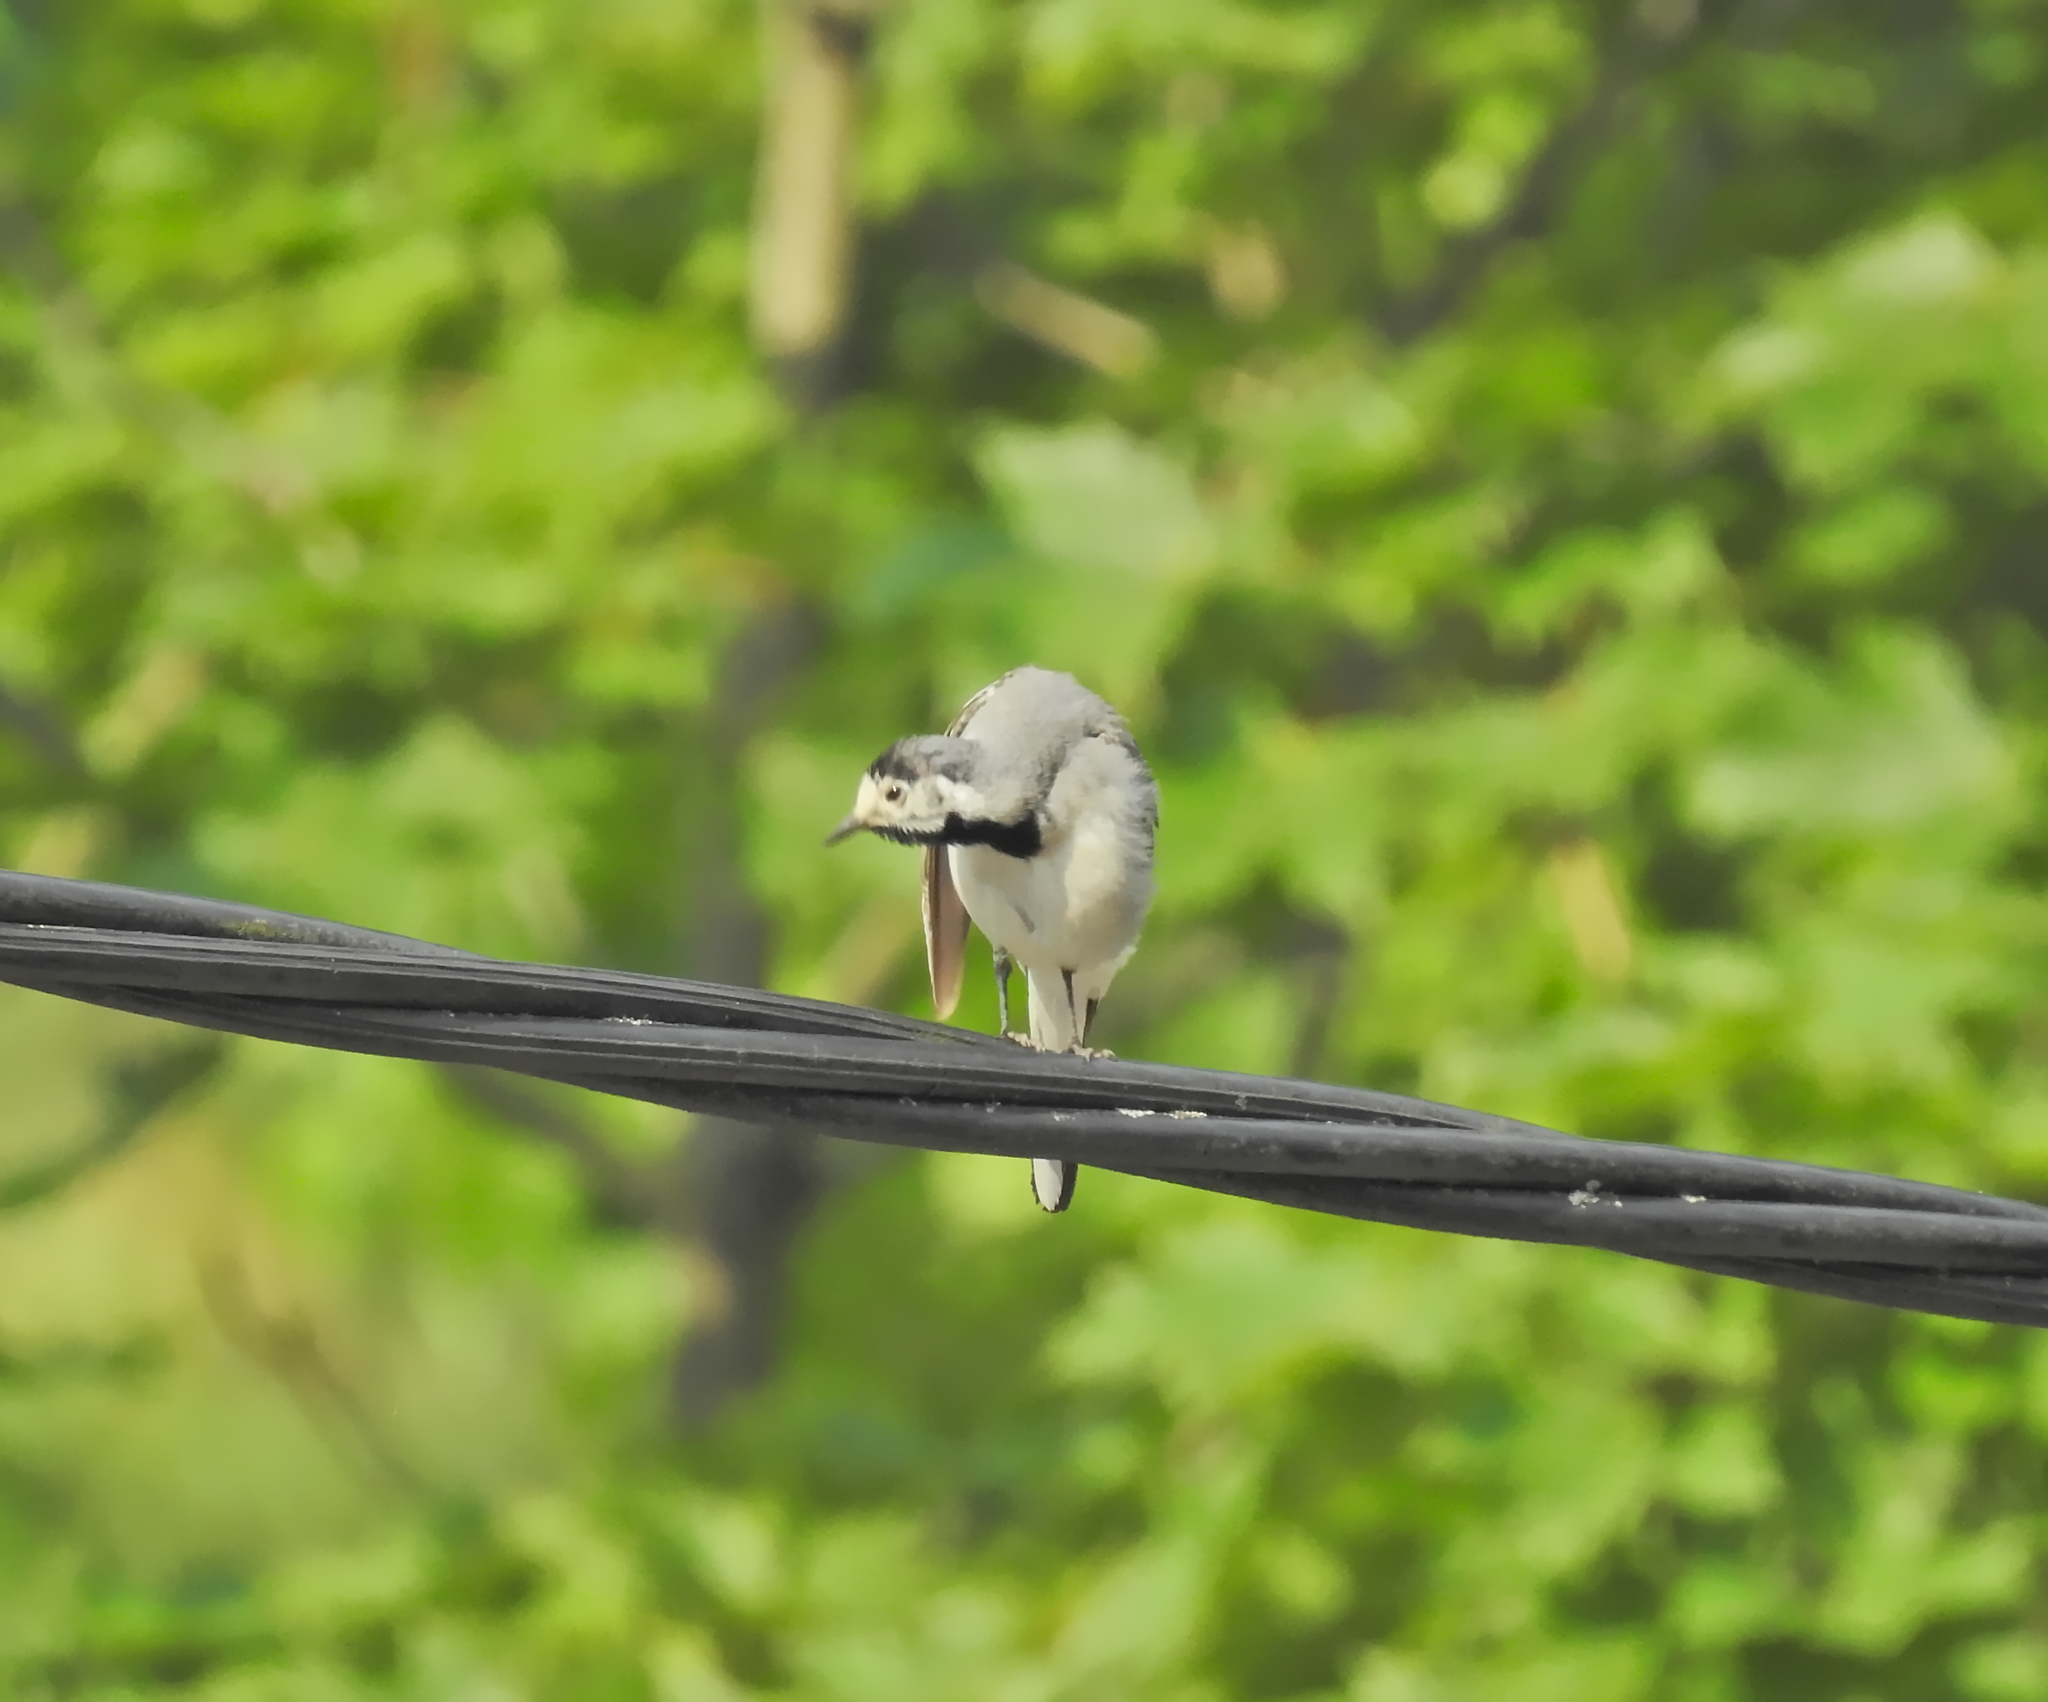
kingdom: Animalia
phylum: Chordata
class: Aves
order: Passeriformes
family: Motacillidae
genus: Motacilla
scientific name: Motacilla alba
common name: White wagtail
